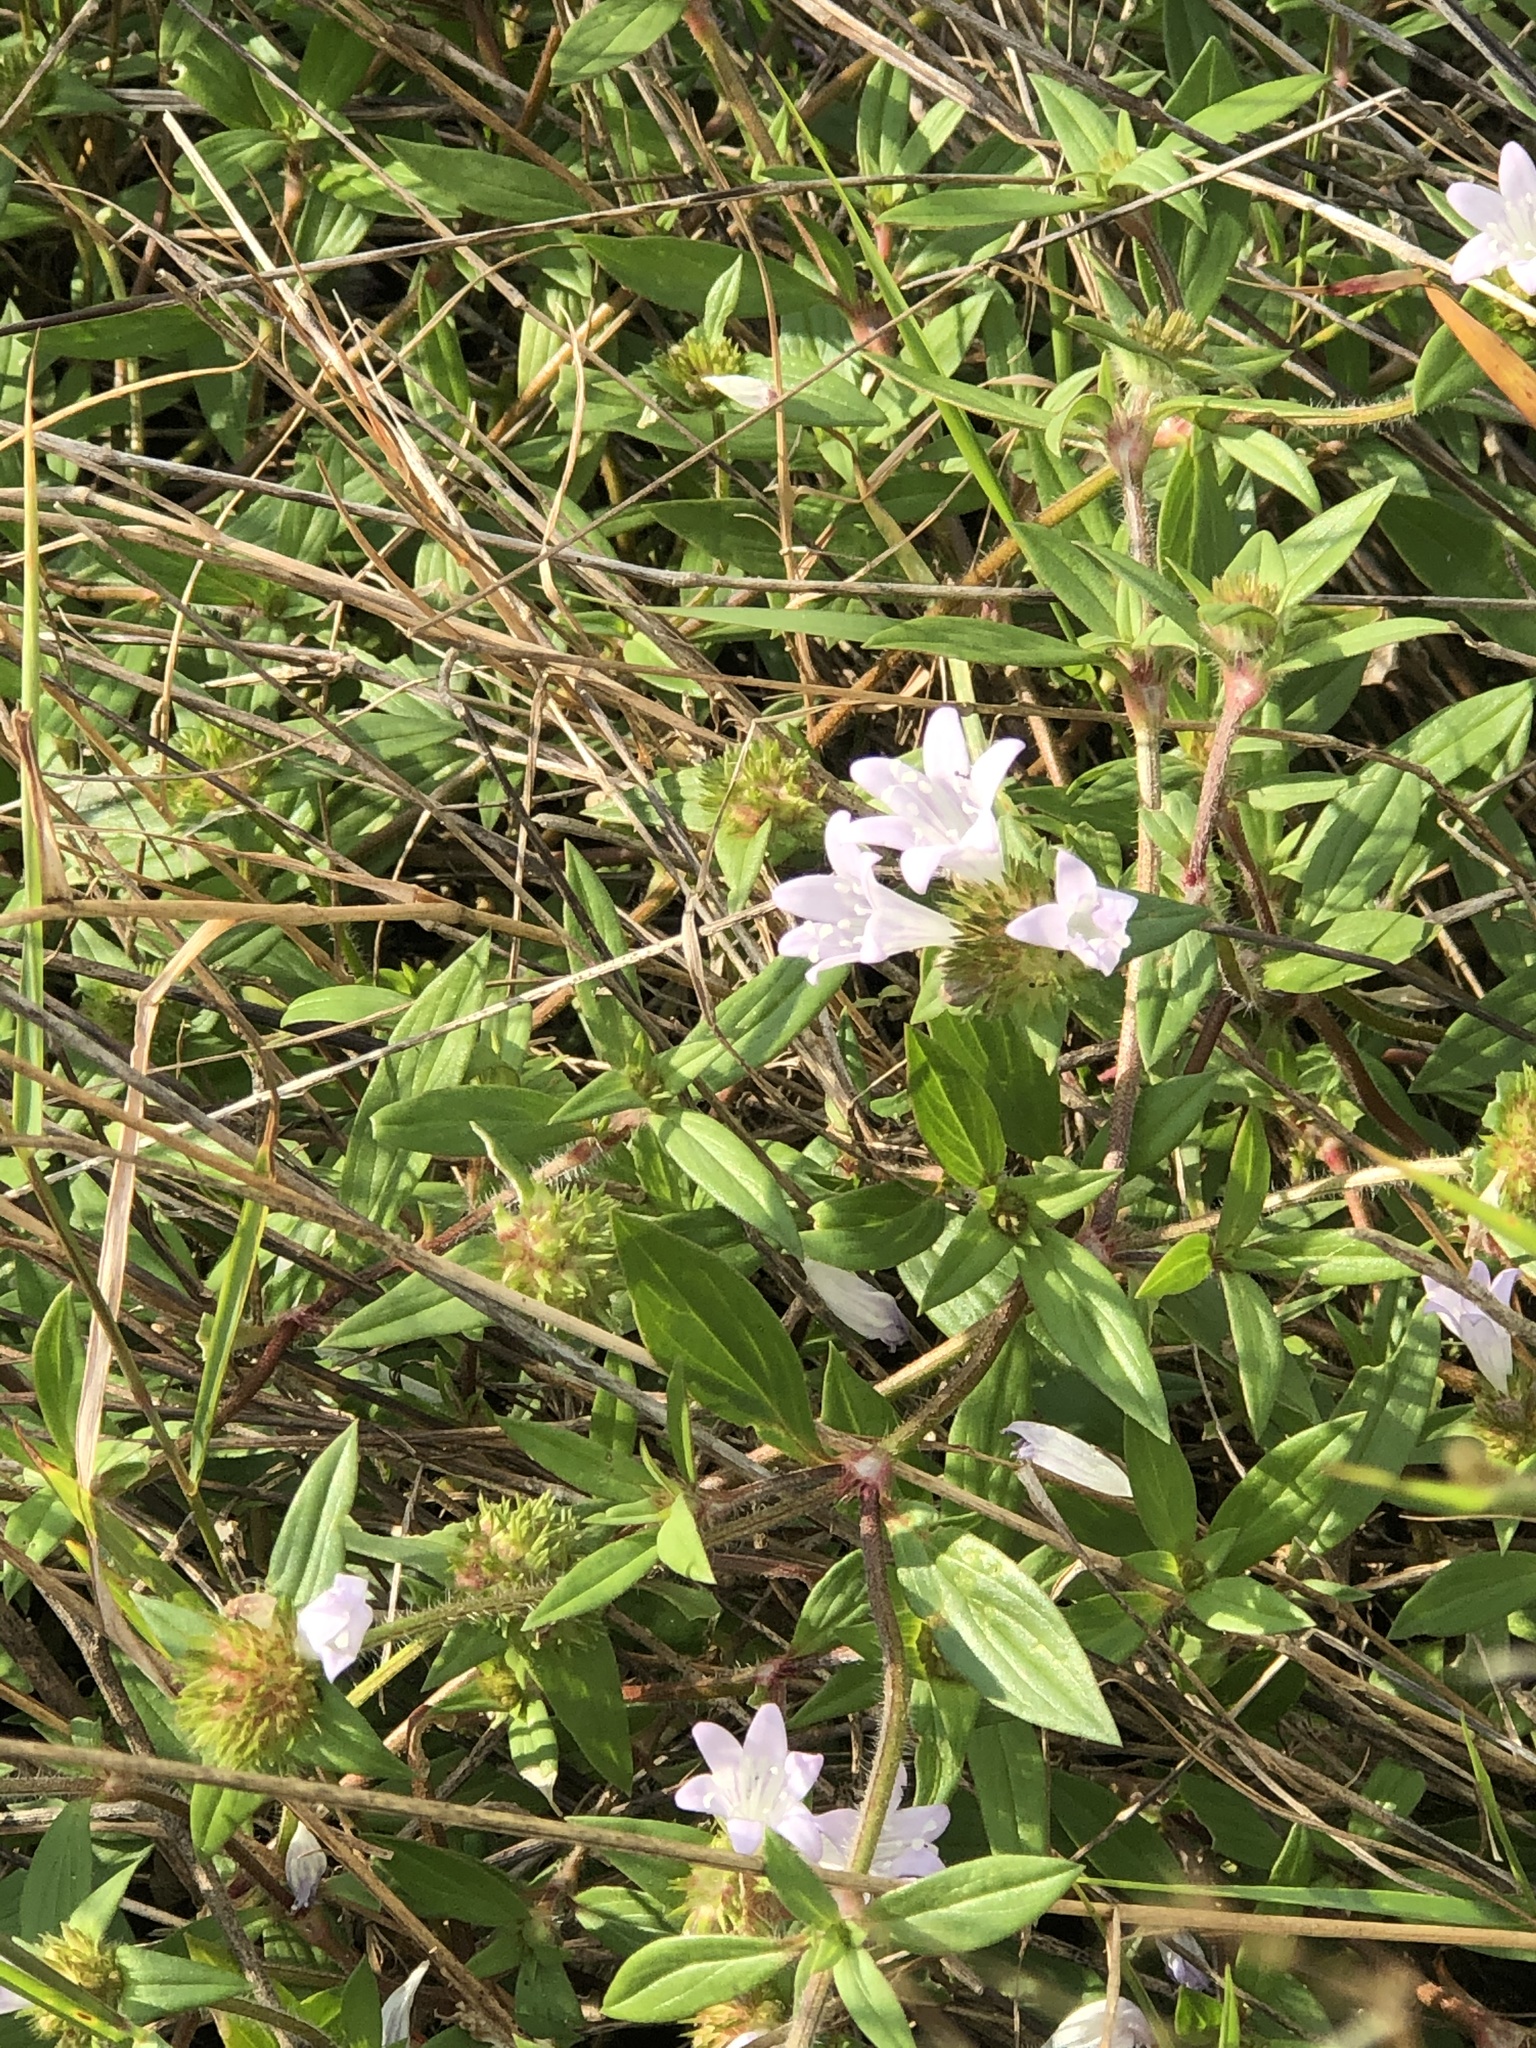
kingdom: Plantae
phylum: Tracheophyta
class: Magnoliopsida
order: Gentianales
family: Rubiaceae
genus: Richardia
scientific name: Richardia grandiflora
